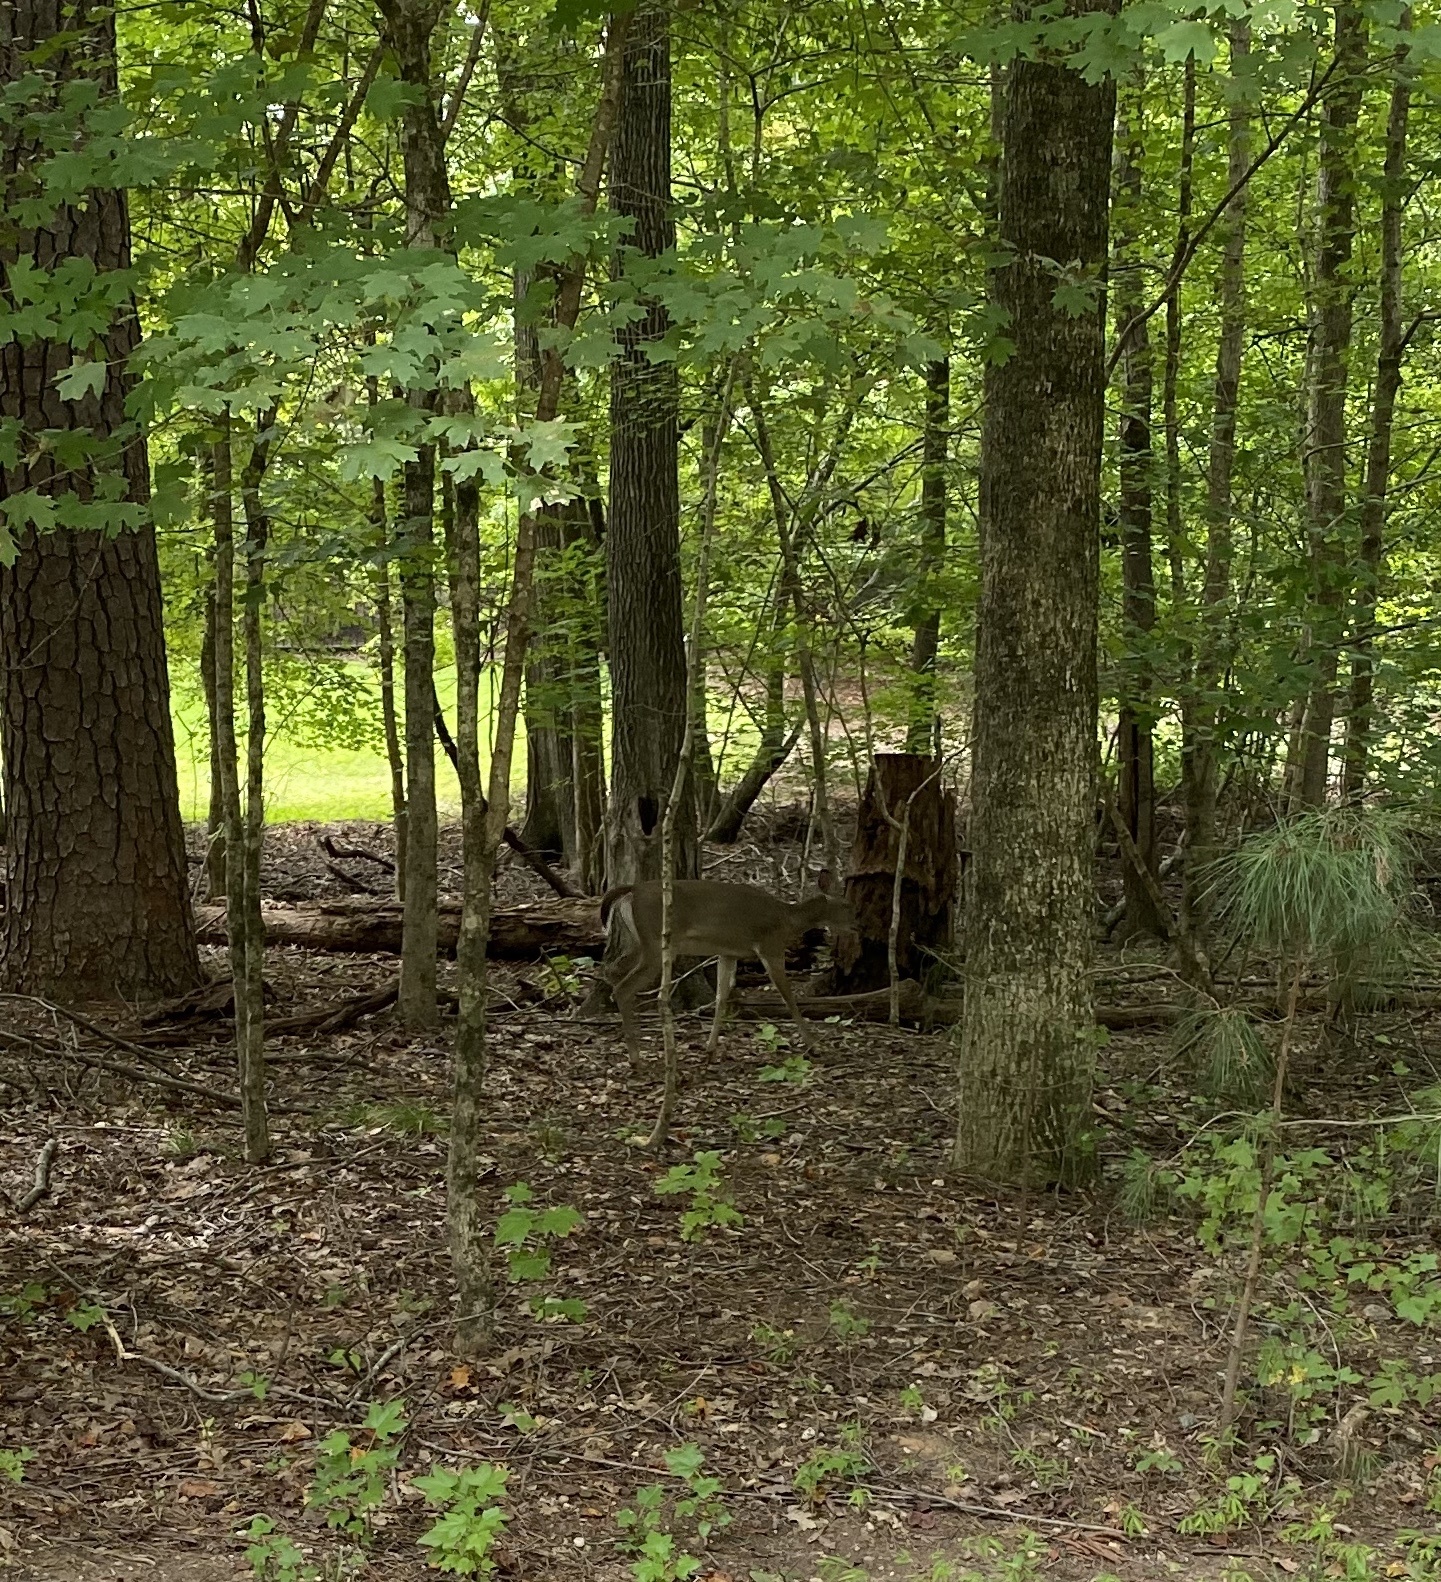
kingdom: Animalia
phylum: Chordata
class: Mammalia
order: Artiodactyla
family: Cervidae
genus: Odocoileus
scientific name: Odocoileus virginianus
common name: White-tailed deer
